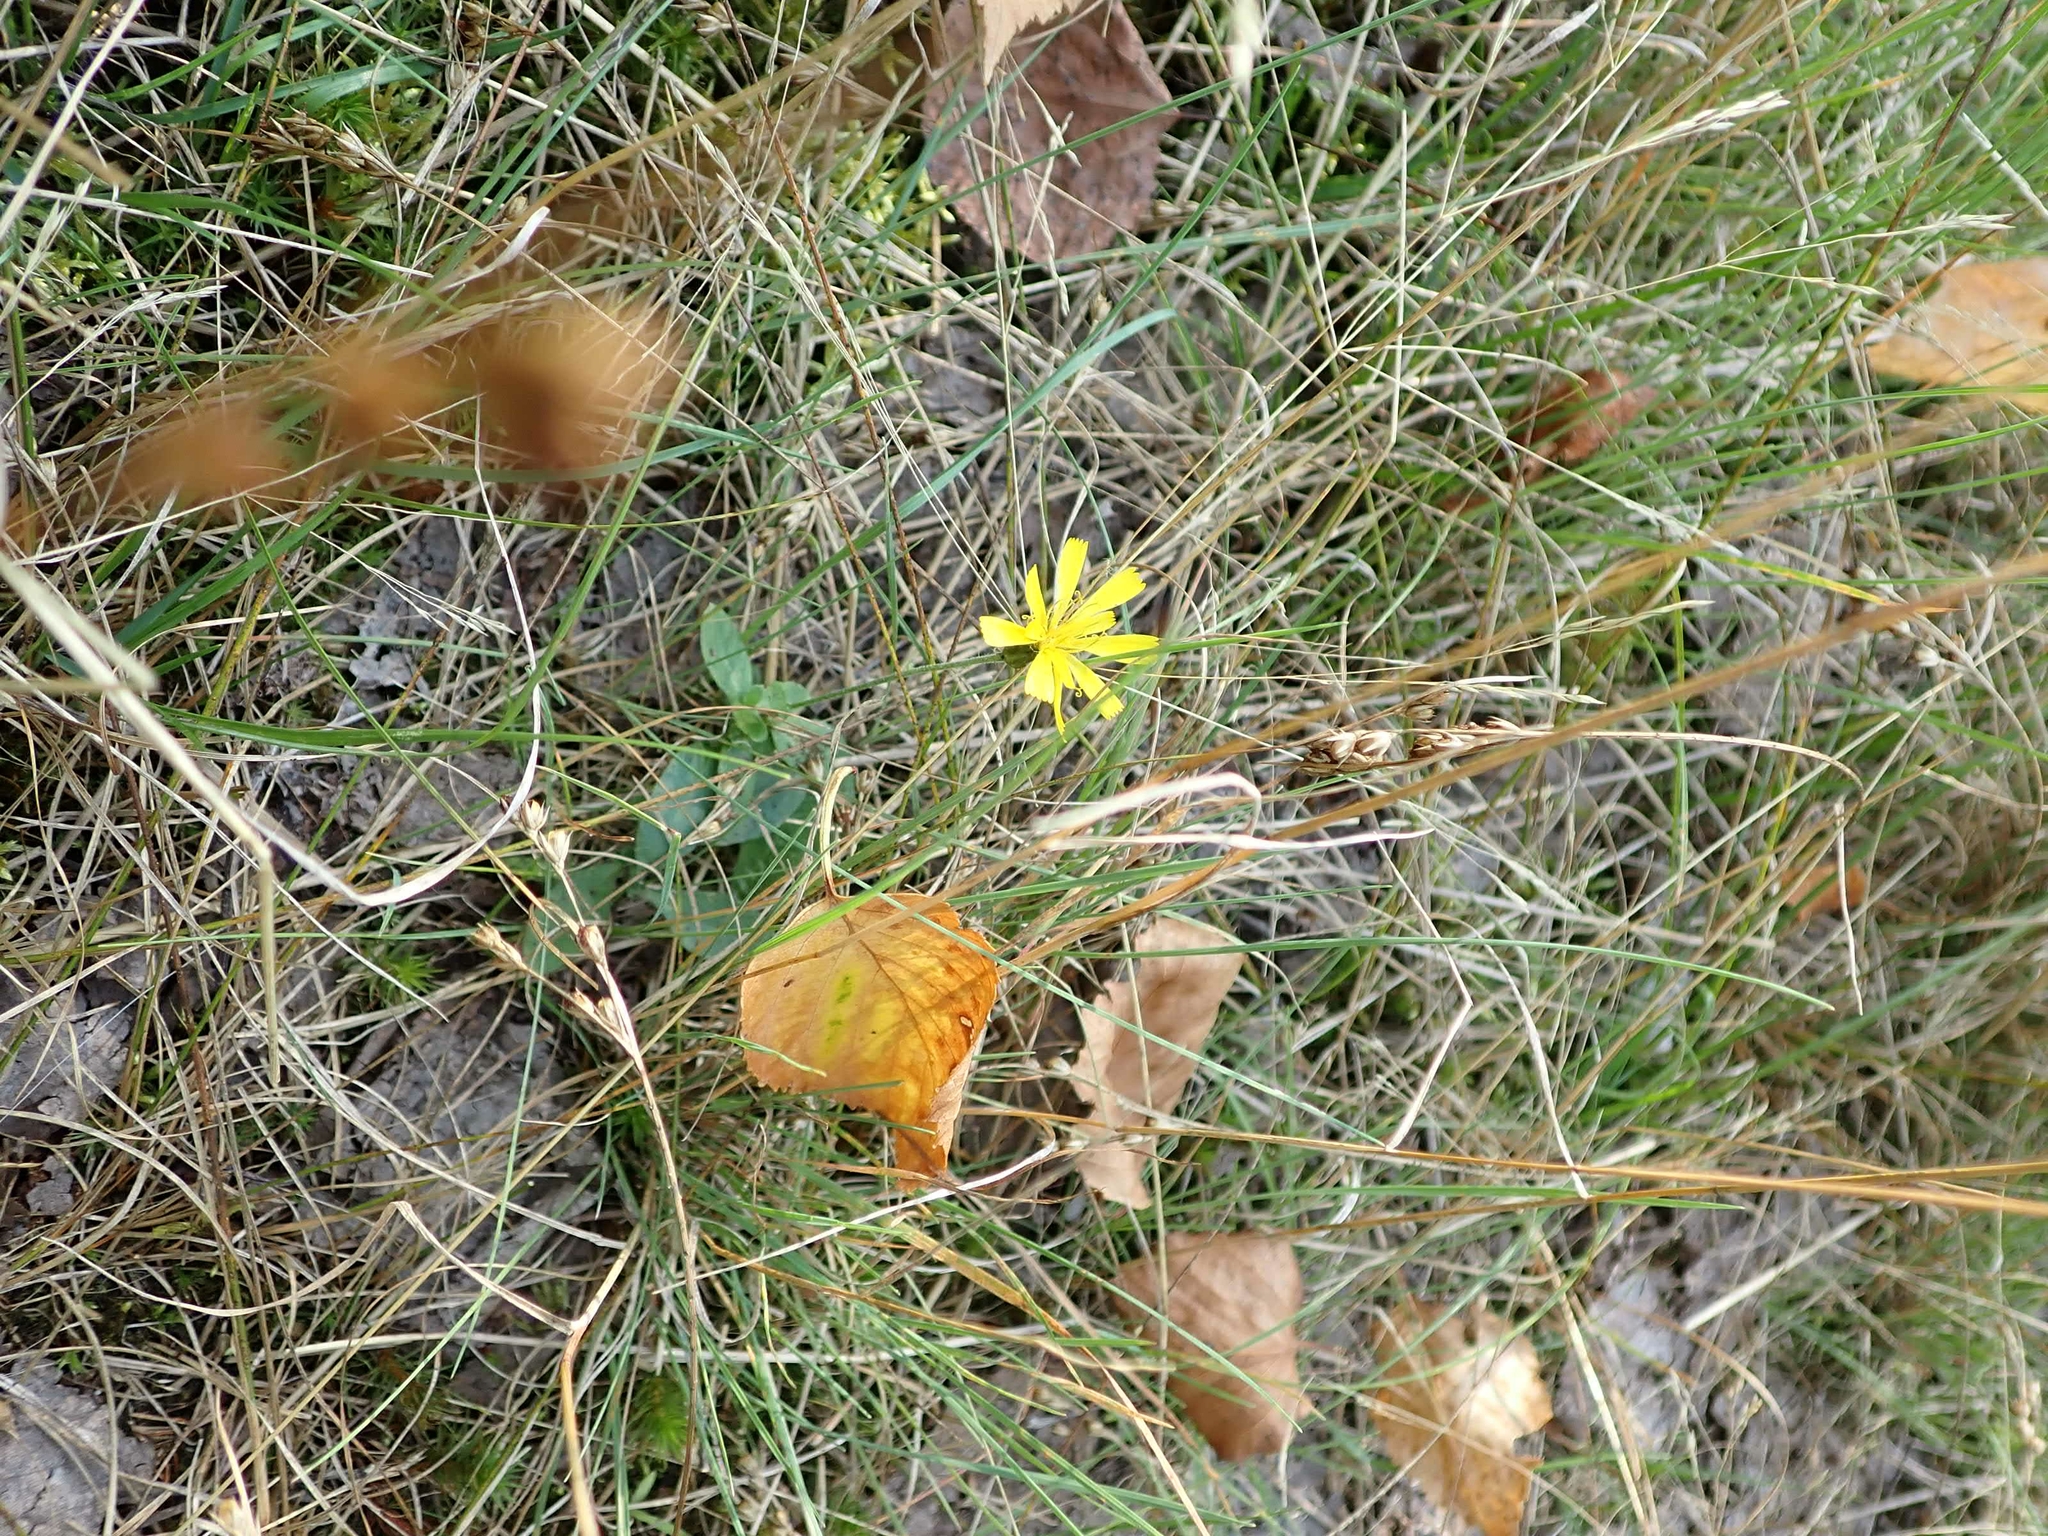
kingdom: Plantae
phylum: Tracheophyta
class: Magnoliopsida
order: Asterales
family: Asteraceae
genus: Hieracium
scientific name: Hieracium umbellatum
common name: Northern hawkweed
